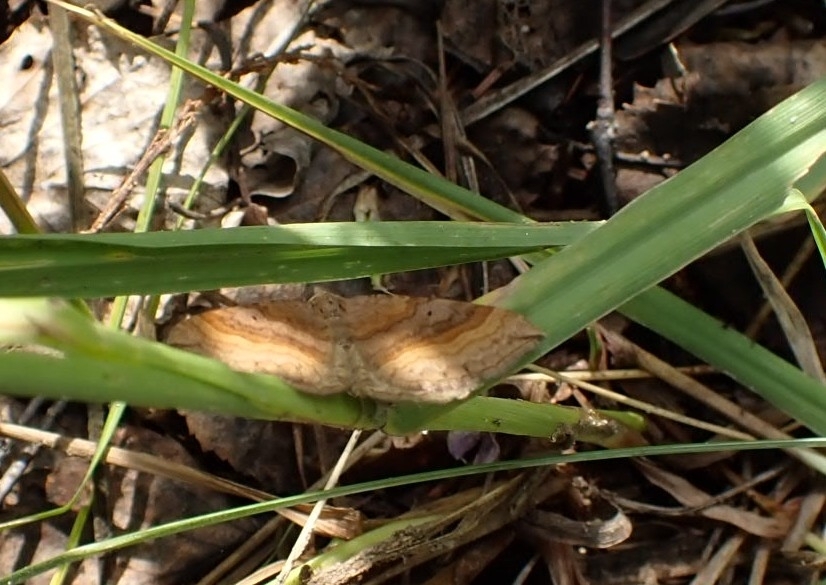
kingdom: Animalia
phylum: Arthropoda
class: Insecta
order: Lepidoptera
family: Geometridae
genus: Scotopteryx
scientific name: Scotopteryx chenopodiata
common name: Shaded broad-bar
